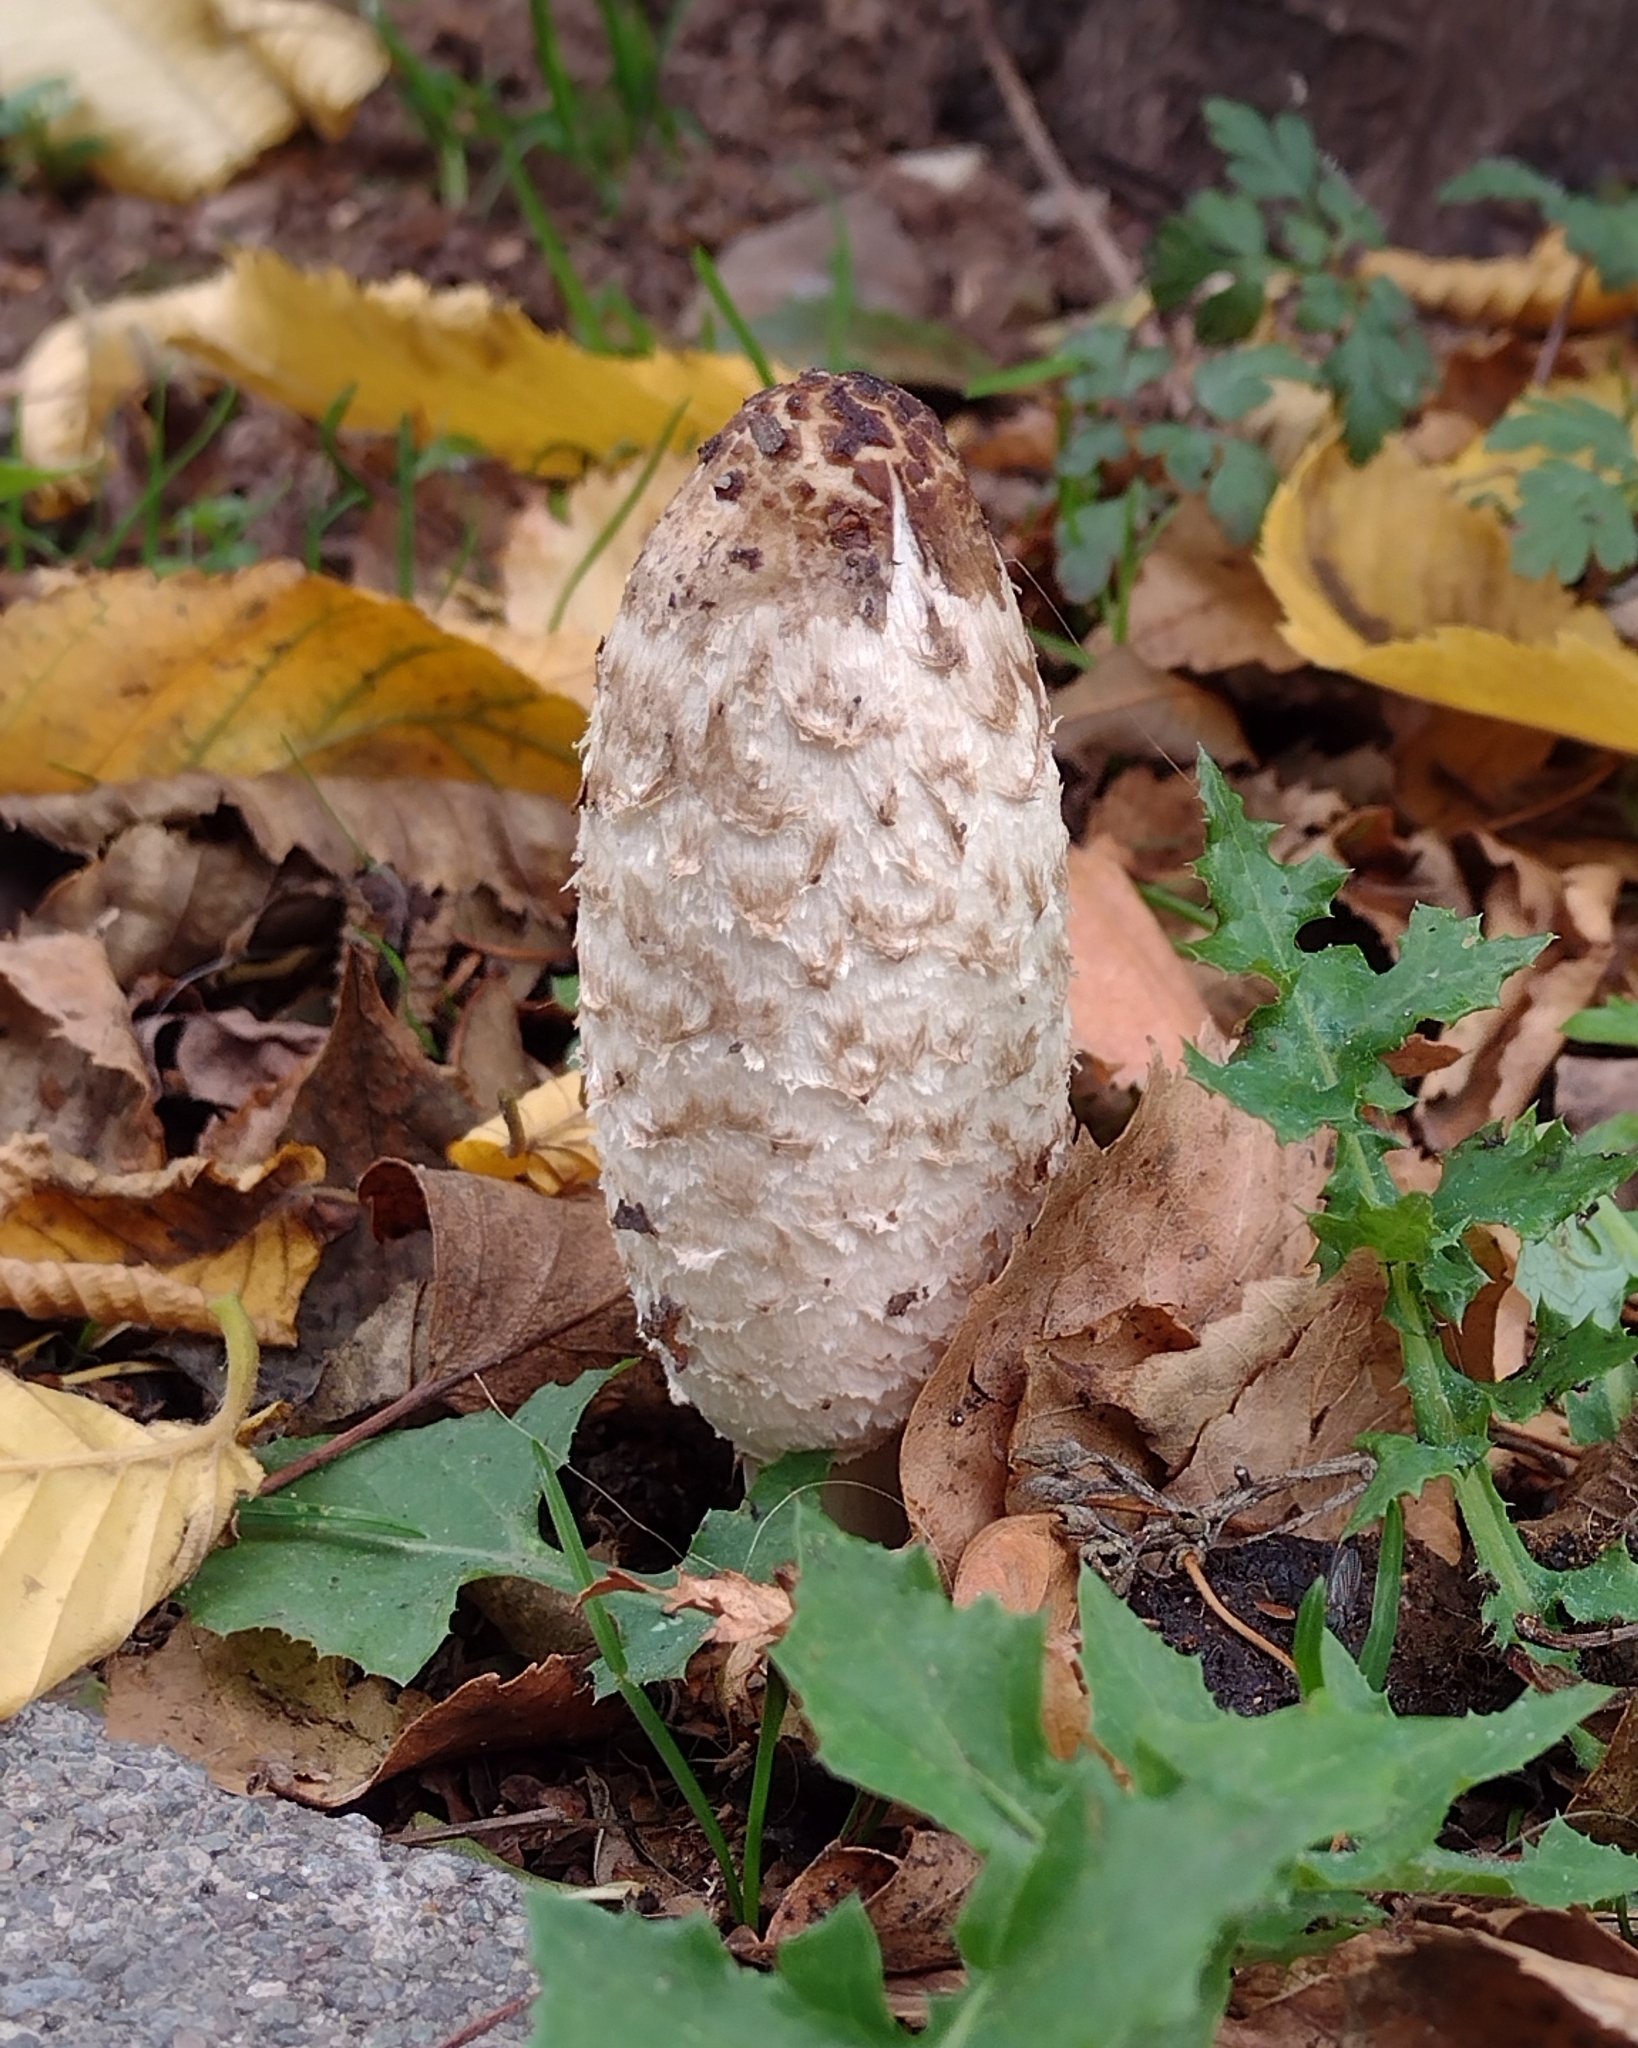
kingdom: Fungi
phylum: Basidiomycota
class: Agaricomycetes
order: Agaricales
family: Agaricaceae
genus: Coprinus
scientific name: Coprinus comatus
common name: Lawyer's wig
